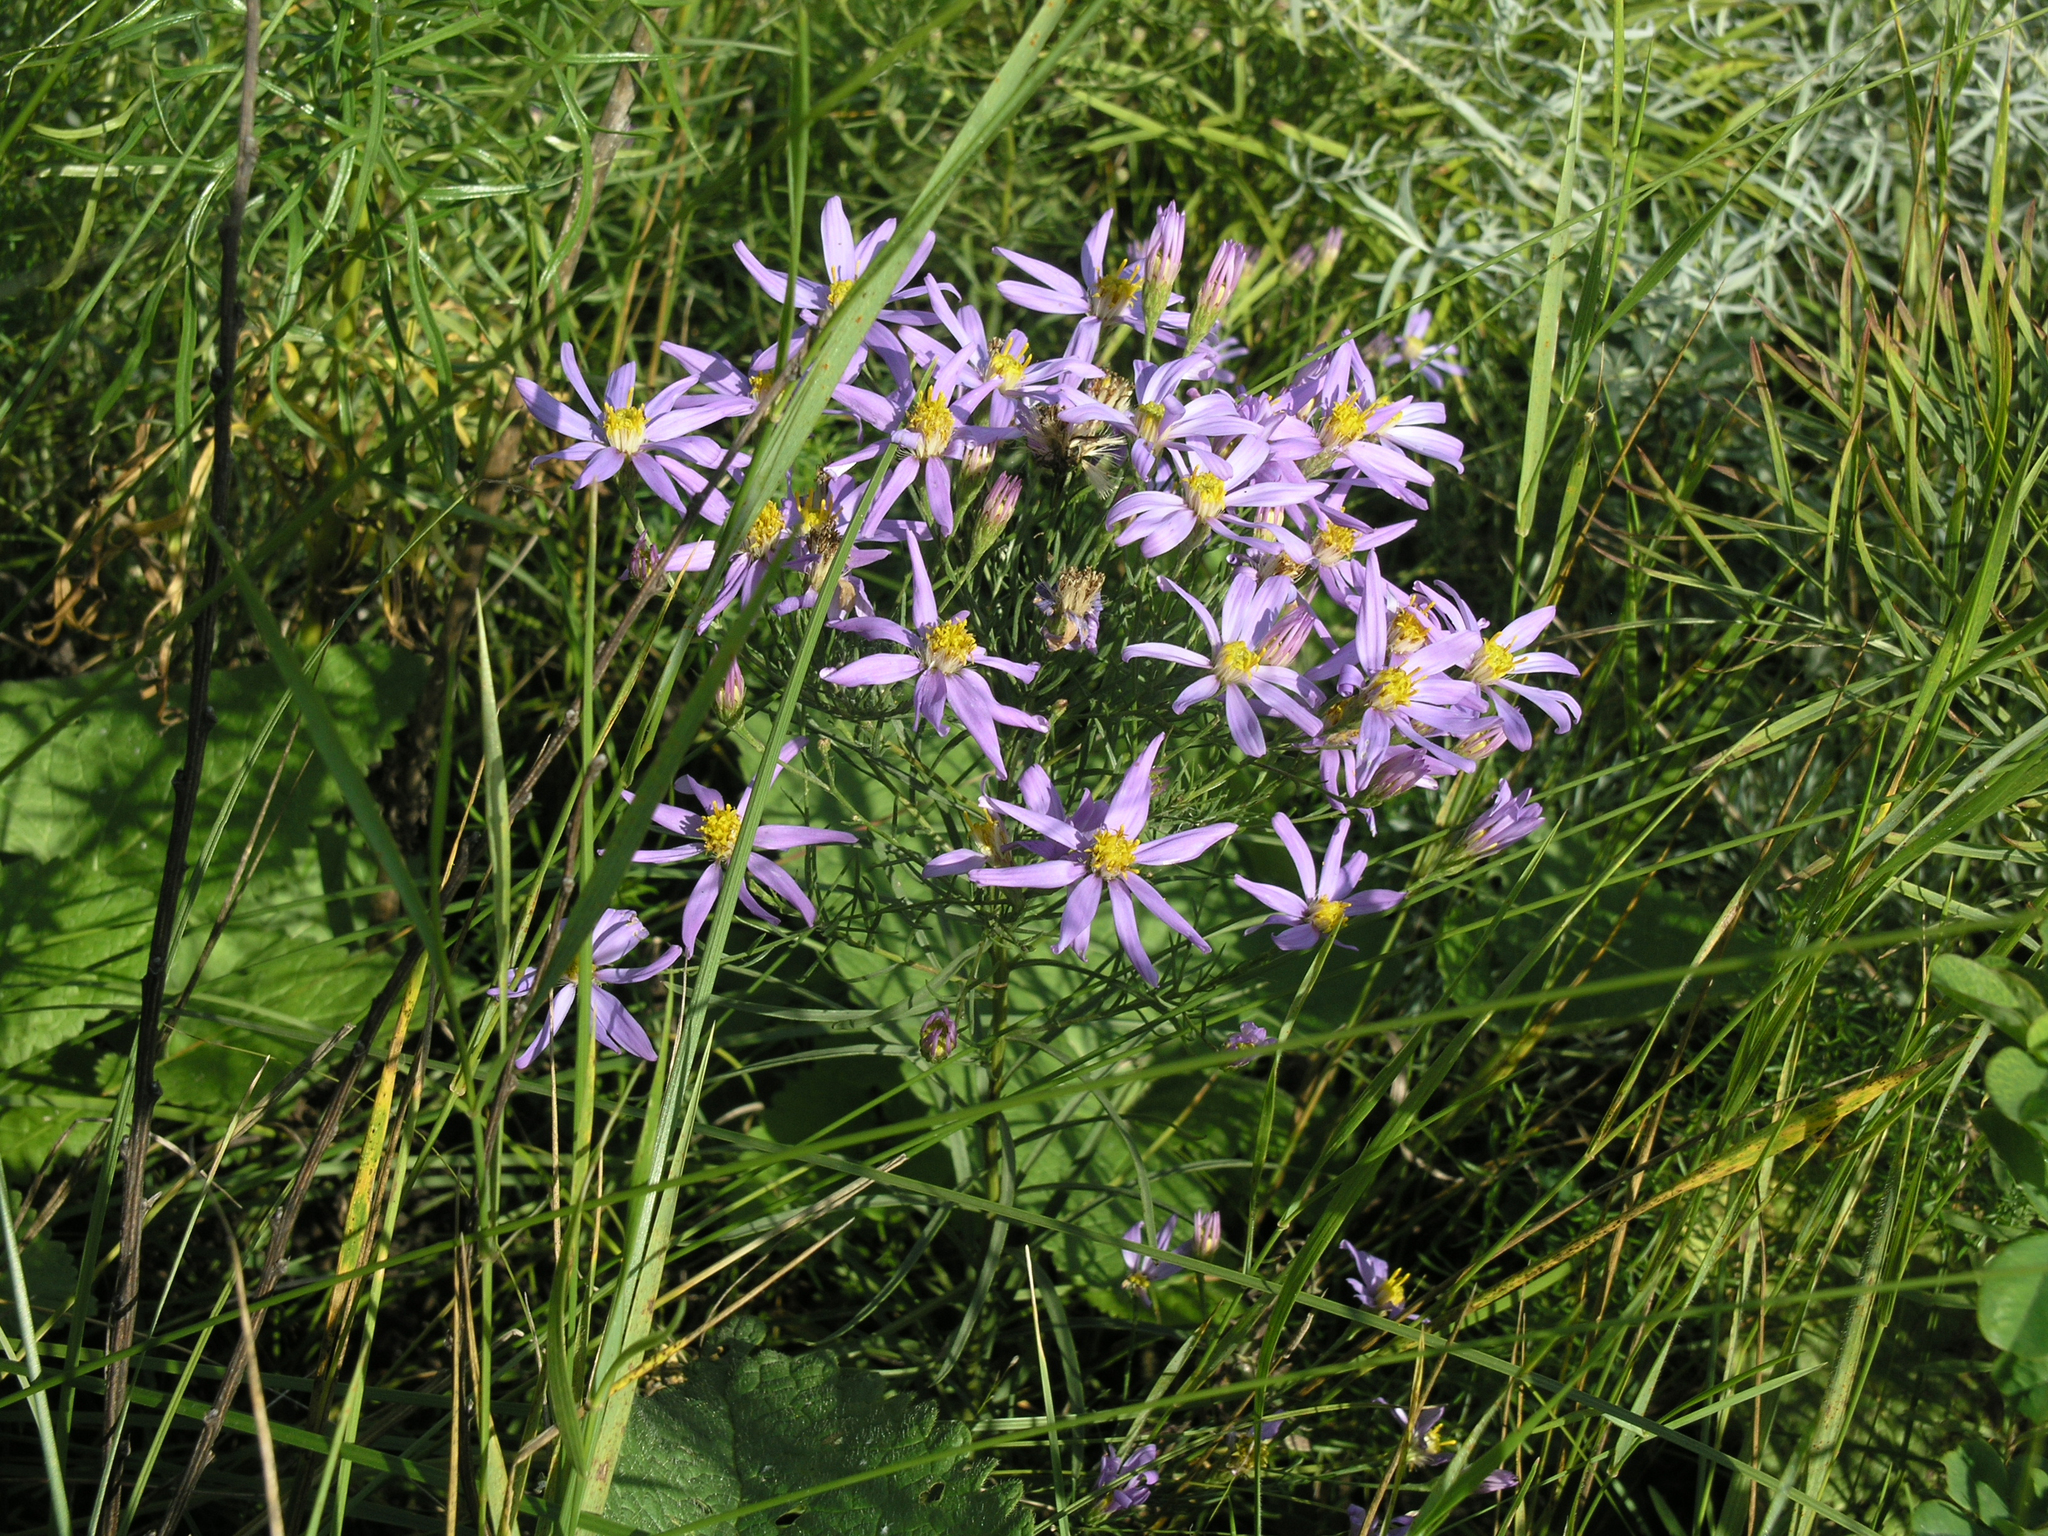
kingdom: Plantae
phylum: Tracheophyta
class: Magnoliopsida
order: Asterales
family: Asteraceae
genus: Galatella
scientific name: Galatella angustissima
